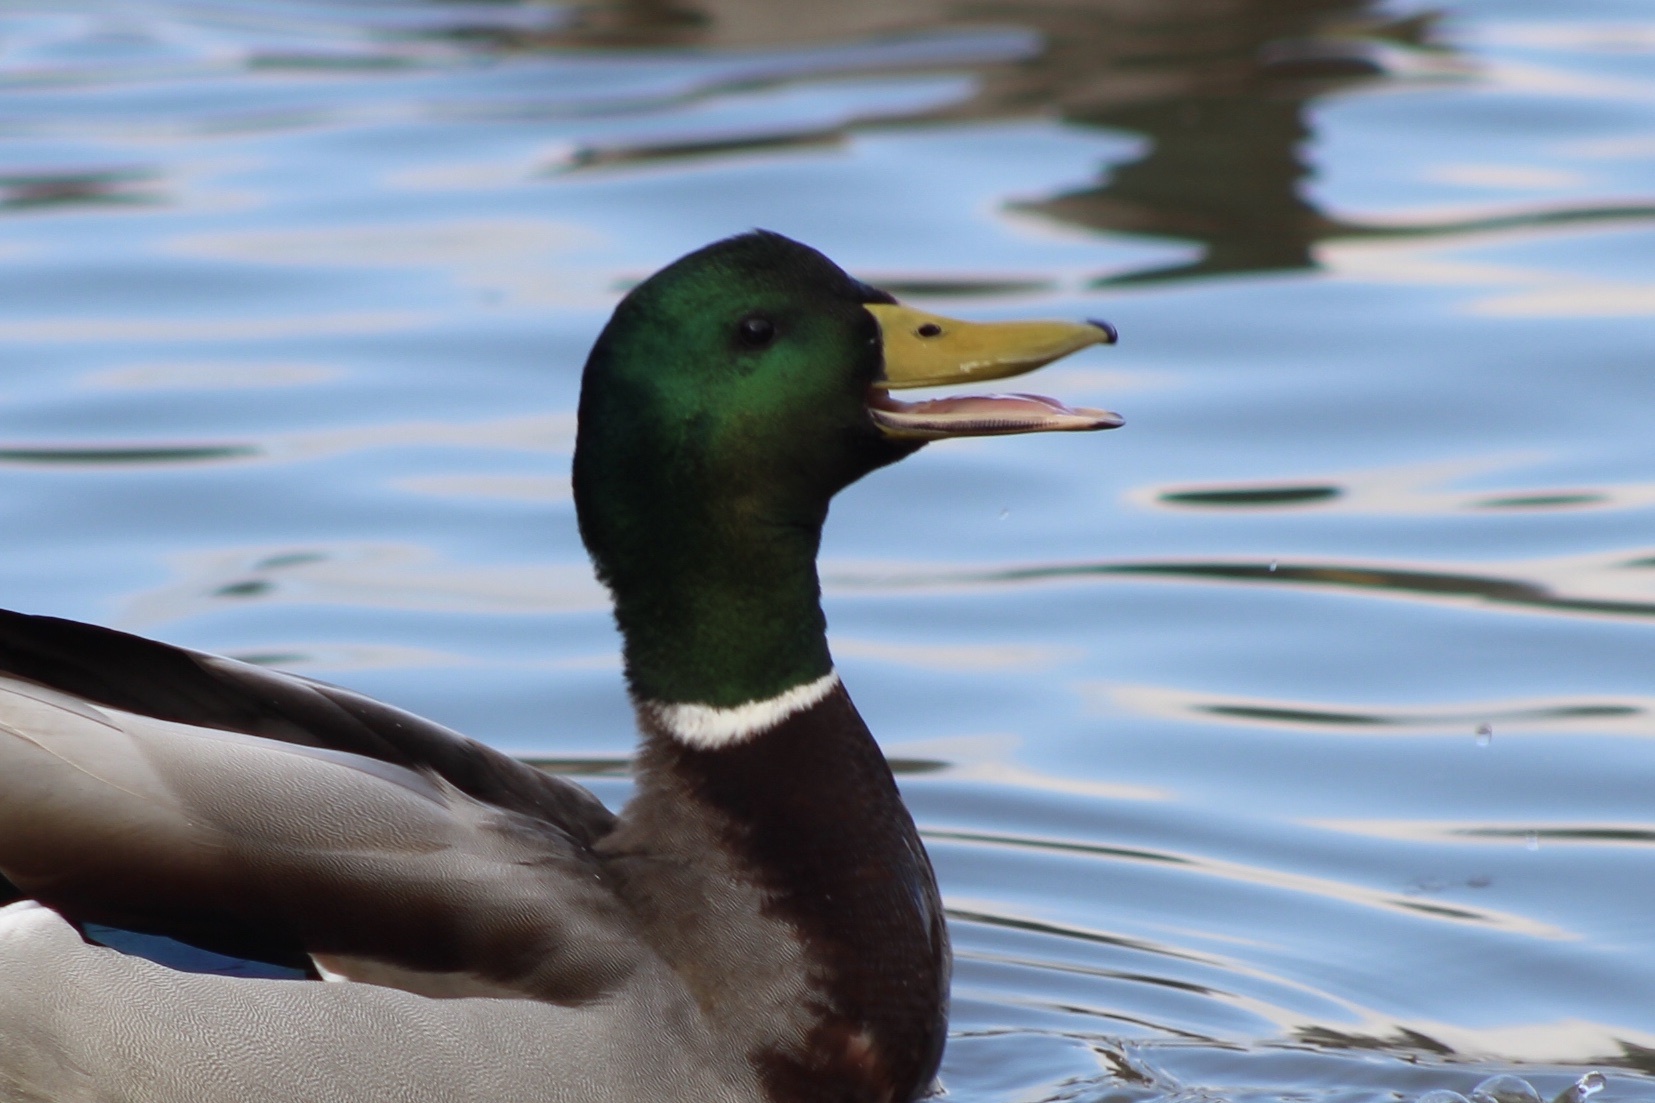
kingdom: Animalia
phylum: Chordata
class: Aves
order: Anseriformes
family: Anatidae
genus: Anas
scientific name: Anas platyrhynchos
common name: Mallard
